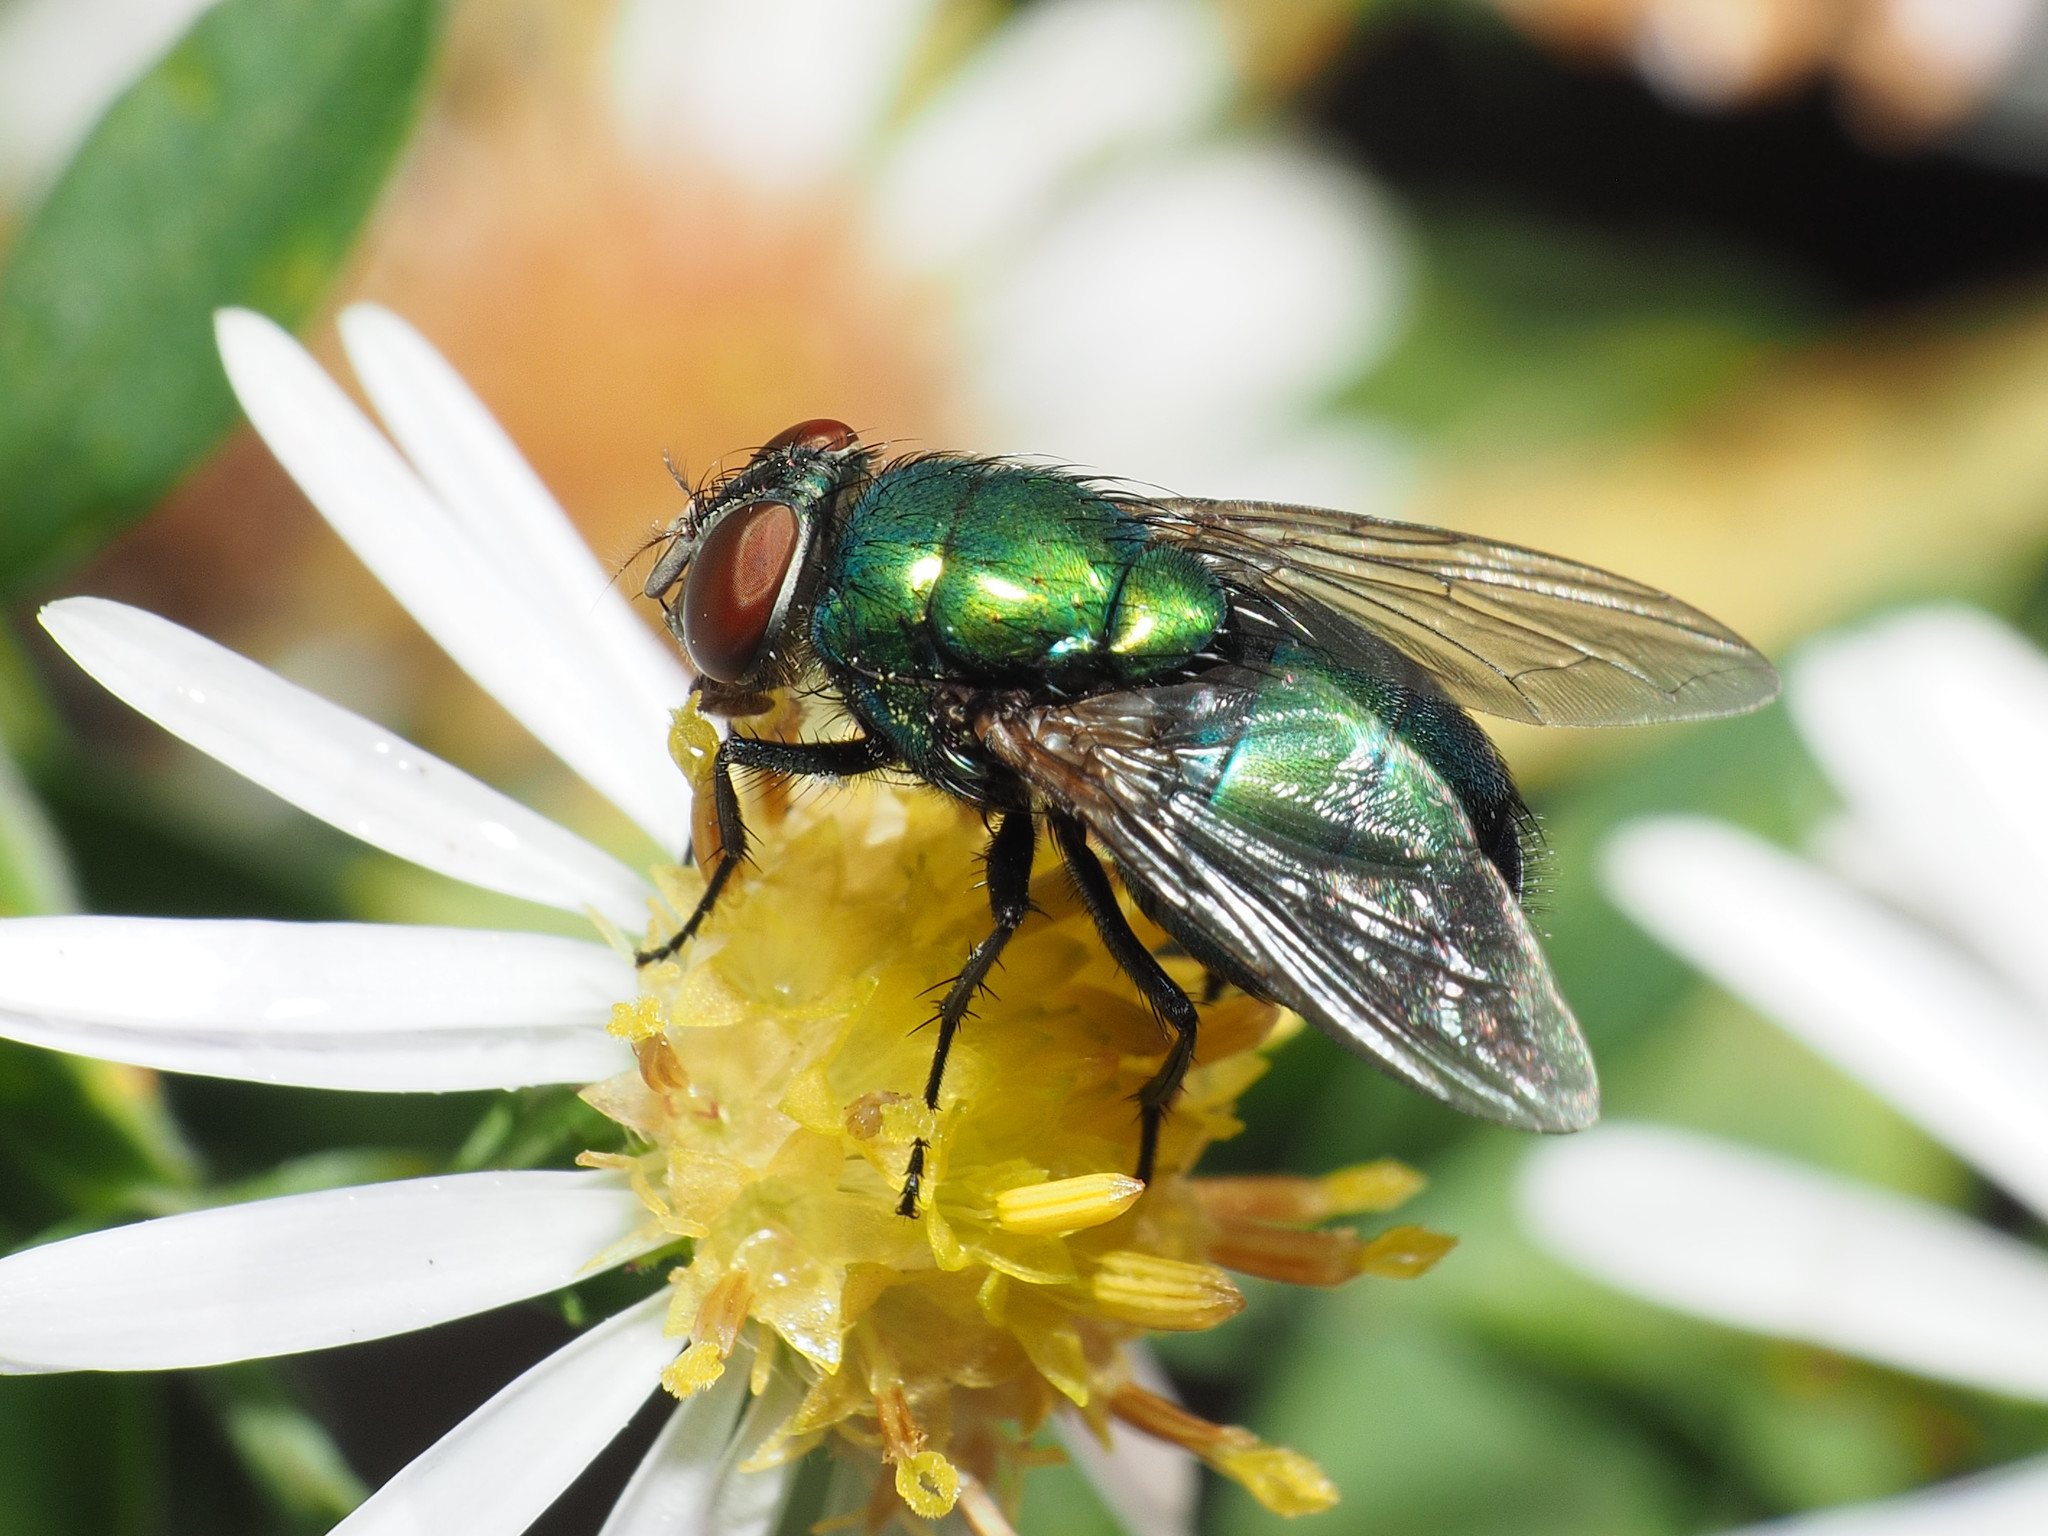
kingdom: Animalia
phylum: Arthropoda
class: Insecta
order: Diptera
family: Calliphoridae
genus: Lucilia
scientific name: Lucilia caeruleiviridis
